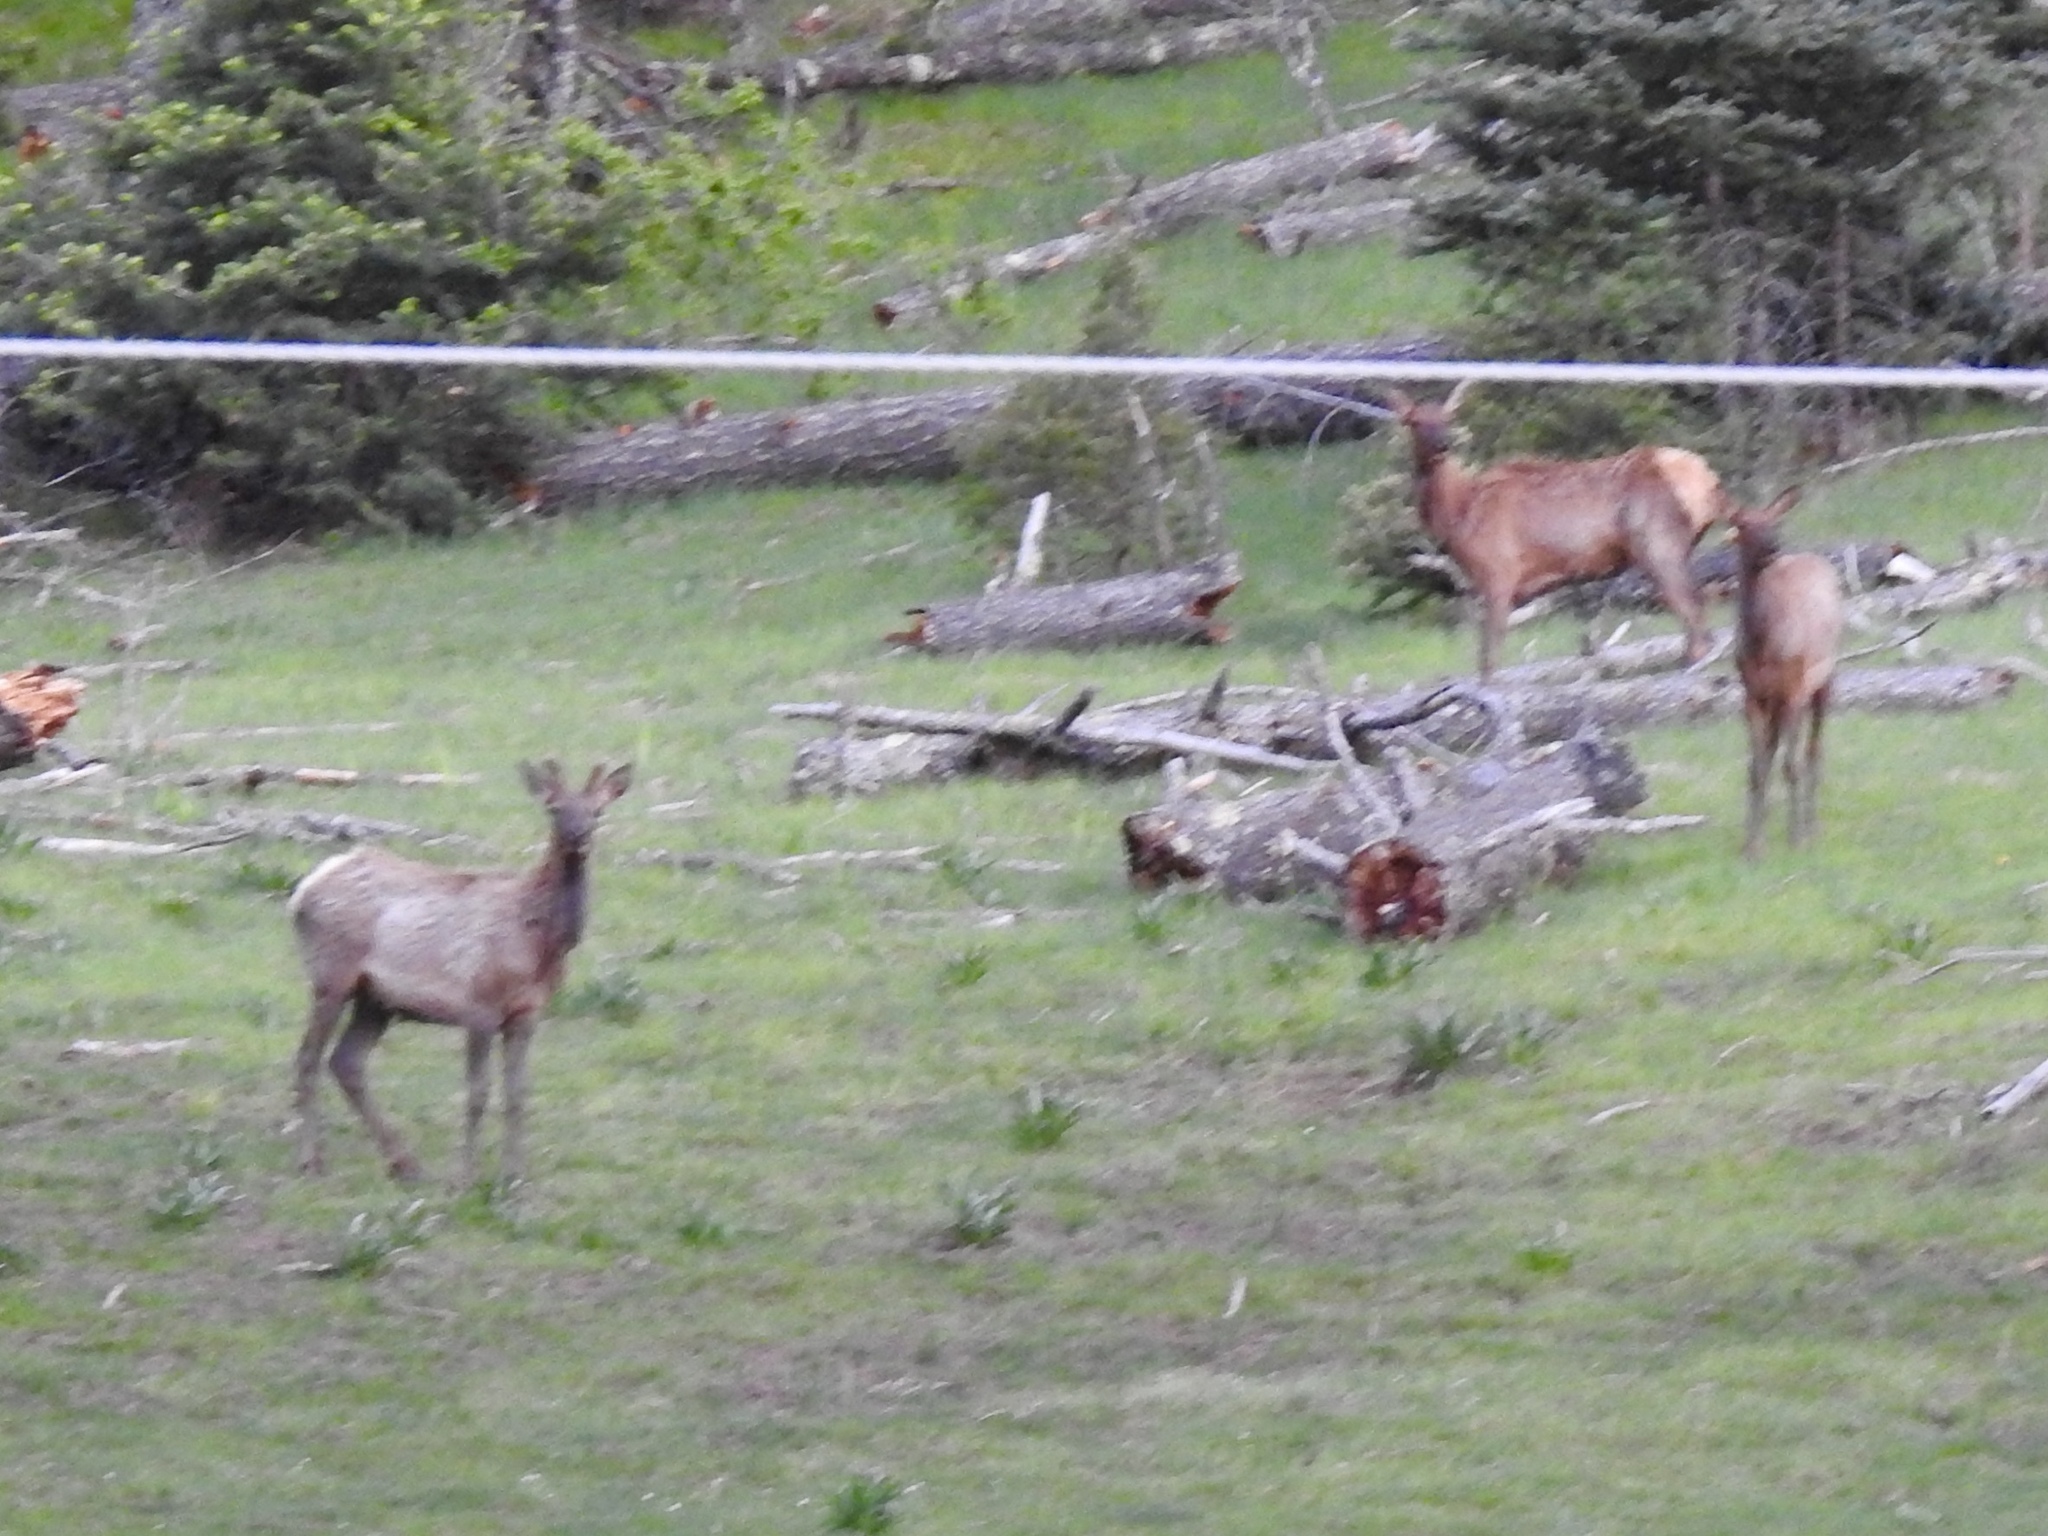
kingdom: Animalia
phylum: Chordata
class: Mammalia
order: Artiodactyla
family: Cervidae
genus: Cervus
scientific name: Cervus elaphus
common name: Red deer
